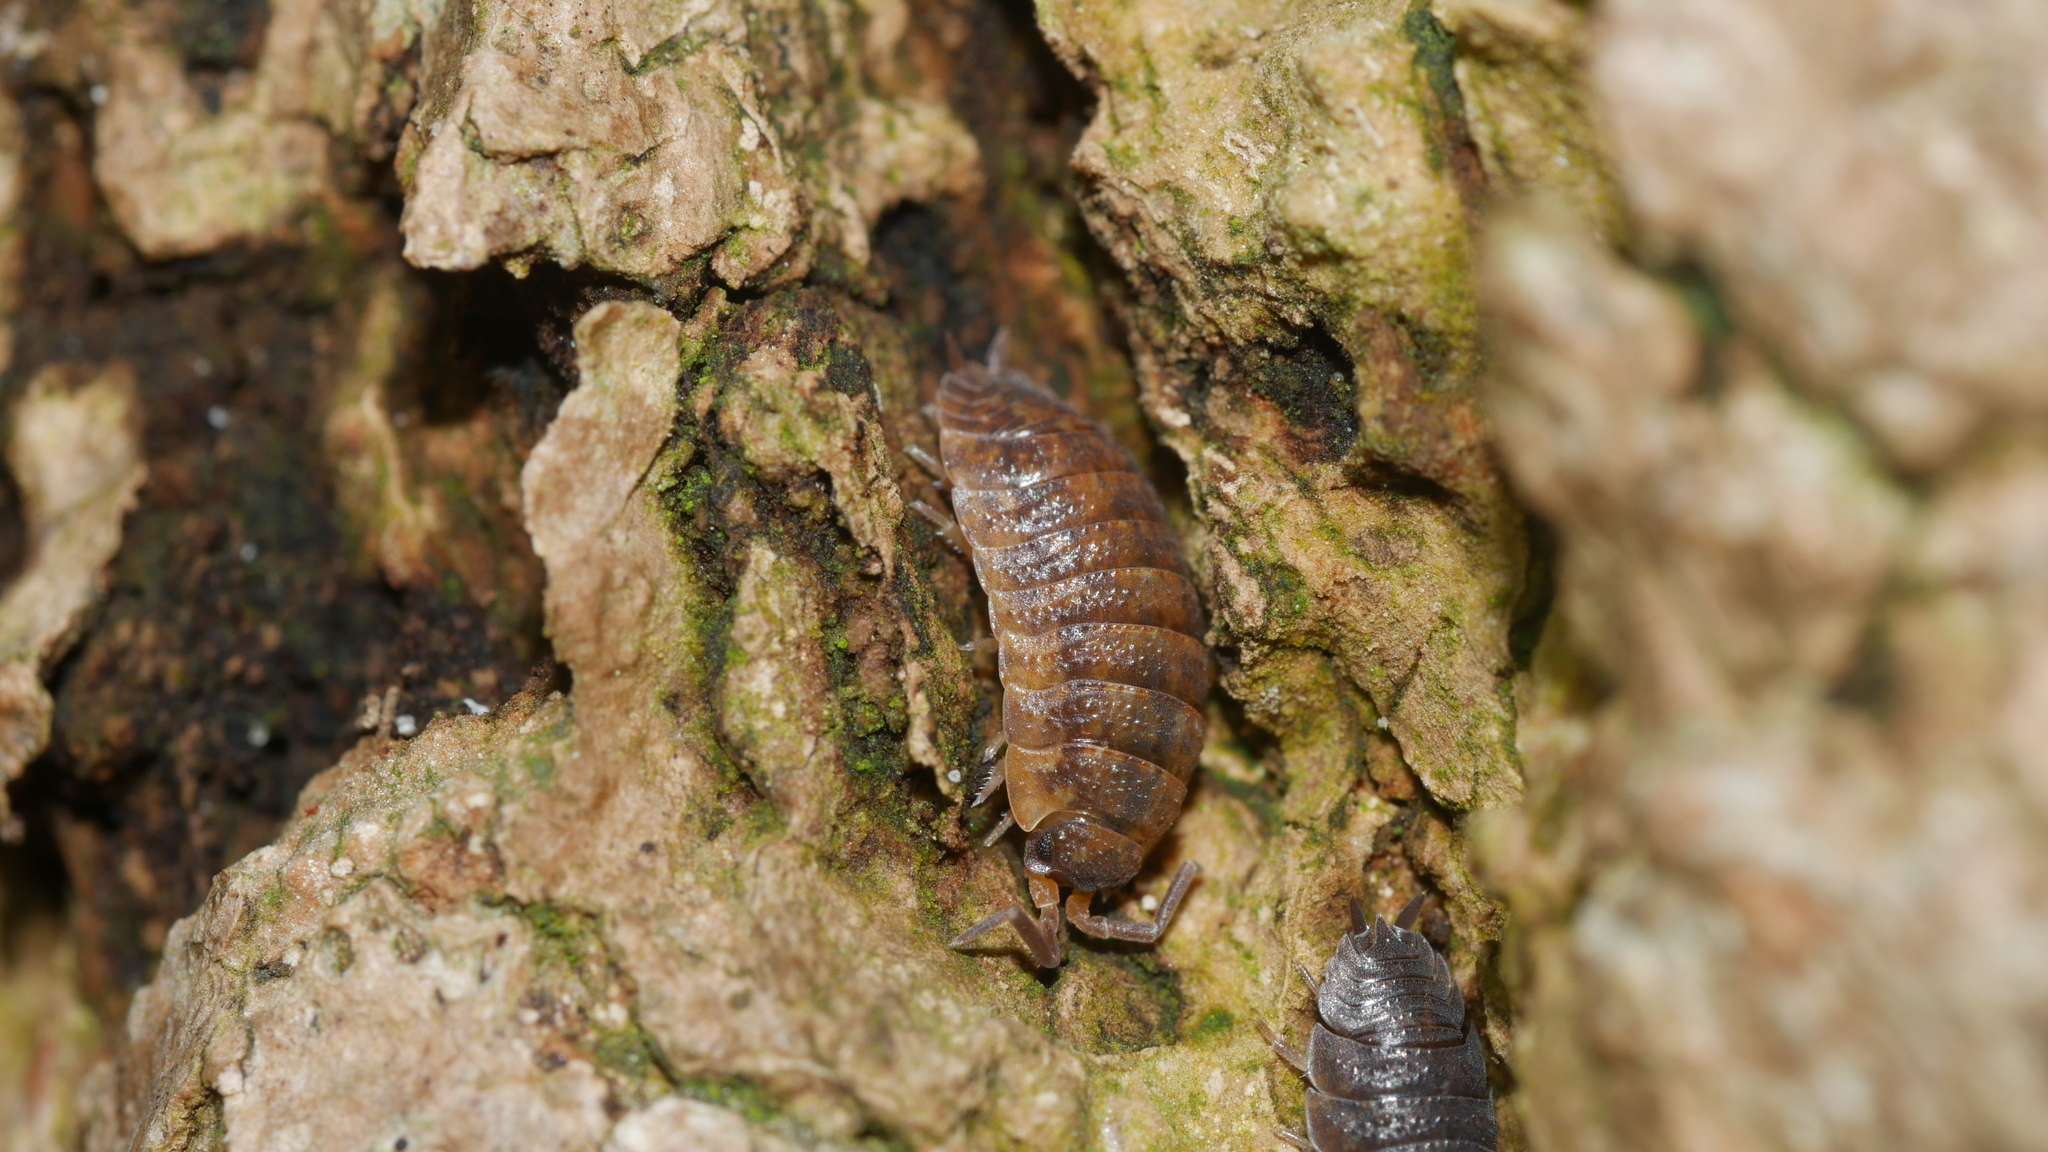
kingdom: Animalia
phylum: Arthropoda
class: Malacostraca
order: Isopoda
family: Porcellionidae
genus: Porcellio
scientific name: Porcellio scaber
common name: Common rough woodlouse
